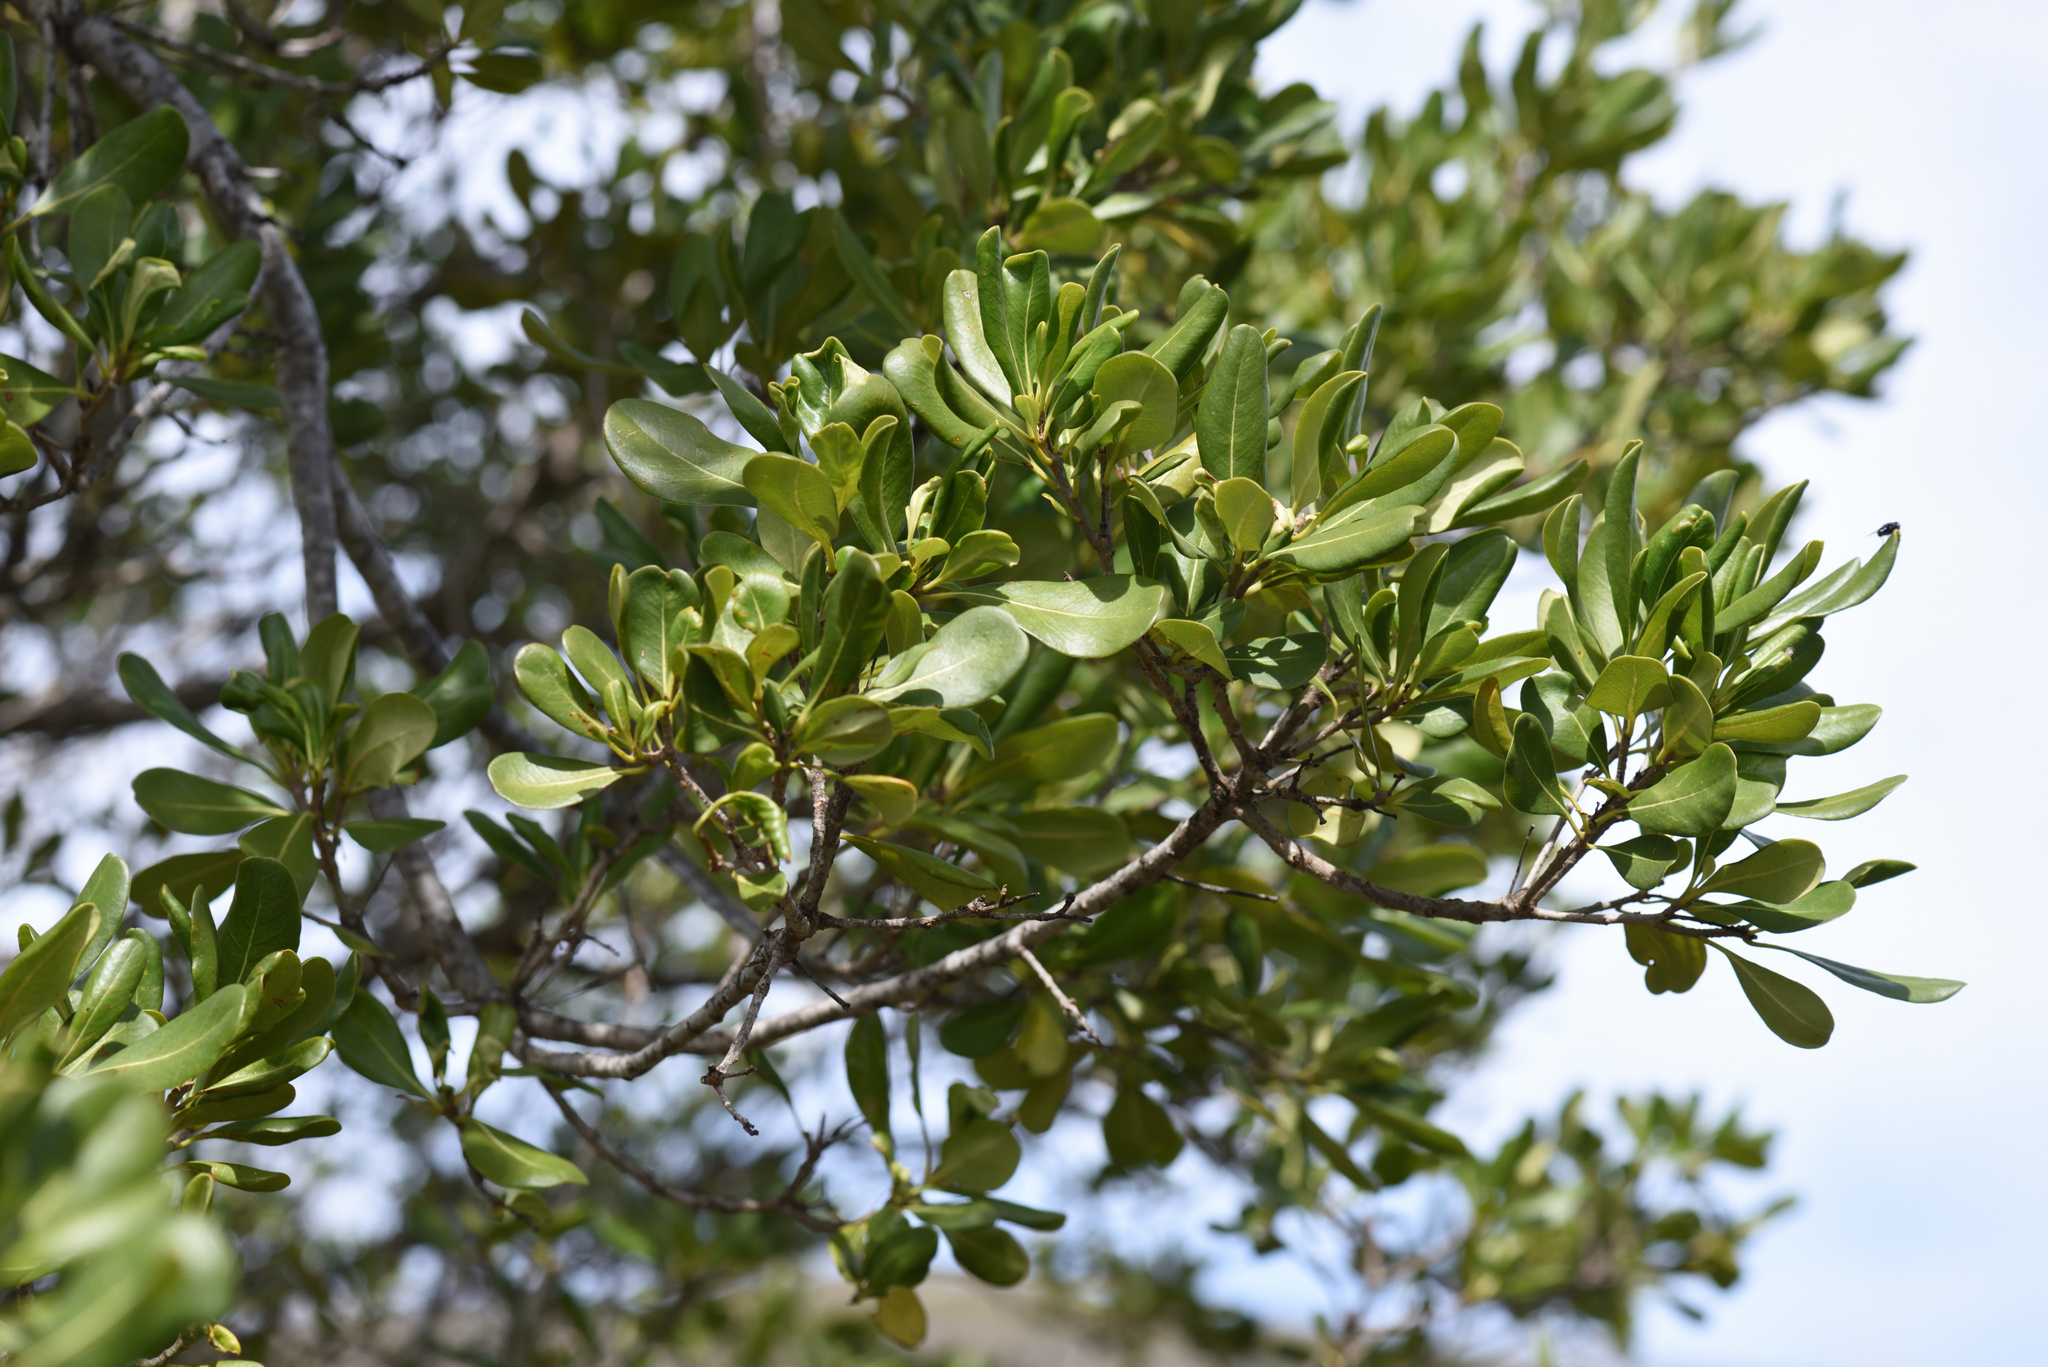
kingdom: Plantae
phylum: Tracheophyta
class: Magnoliopsida
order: Apiales
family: Pittosporaceae
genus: Pittosporum
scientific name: Pittosporum viridiflorum
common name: Cape cheesewood
